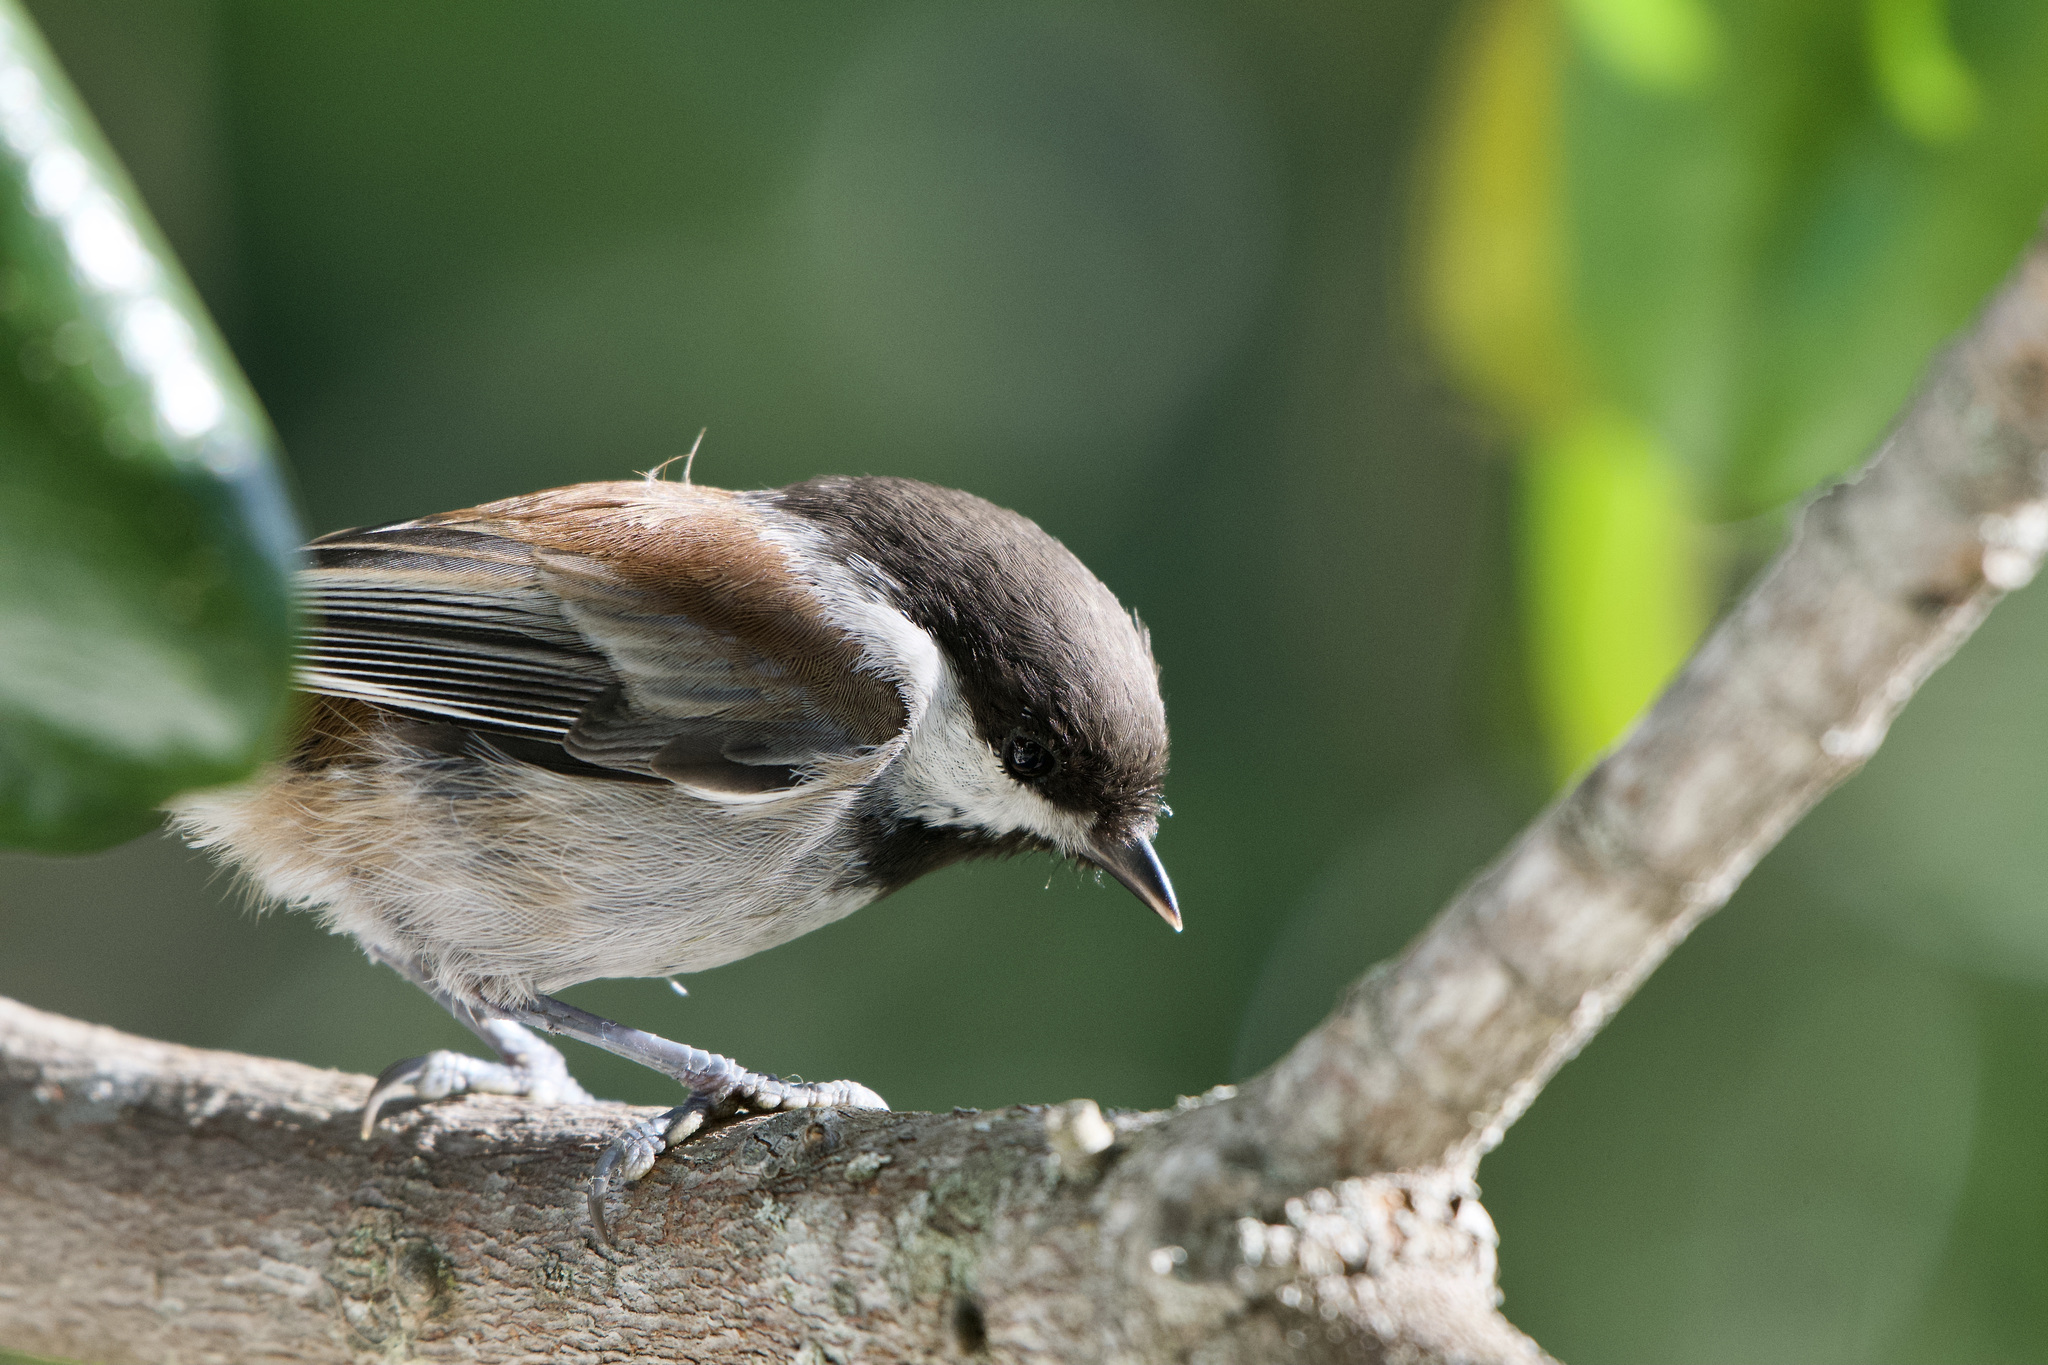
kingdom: Animalia
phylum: Chordata
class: Aves
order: Passeriformes
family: Paridae
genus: Poecile
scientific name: Poecile rufescens
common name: Chestnut-backed chickadee
